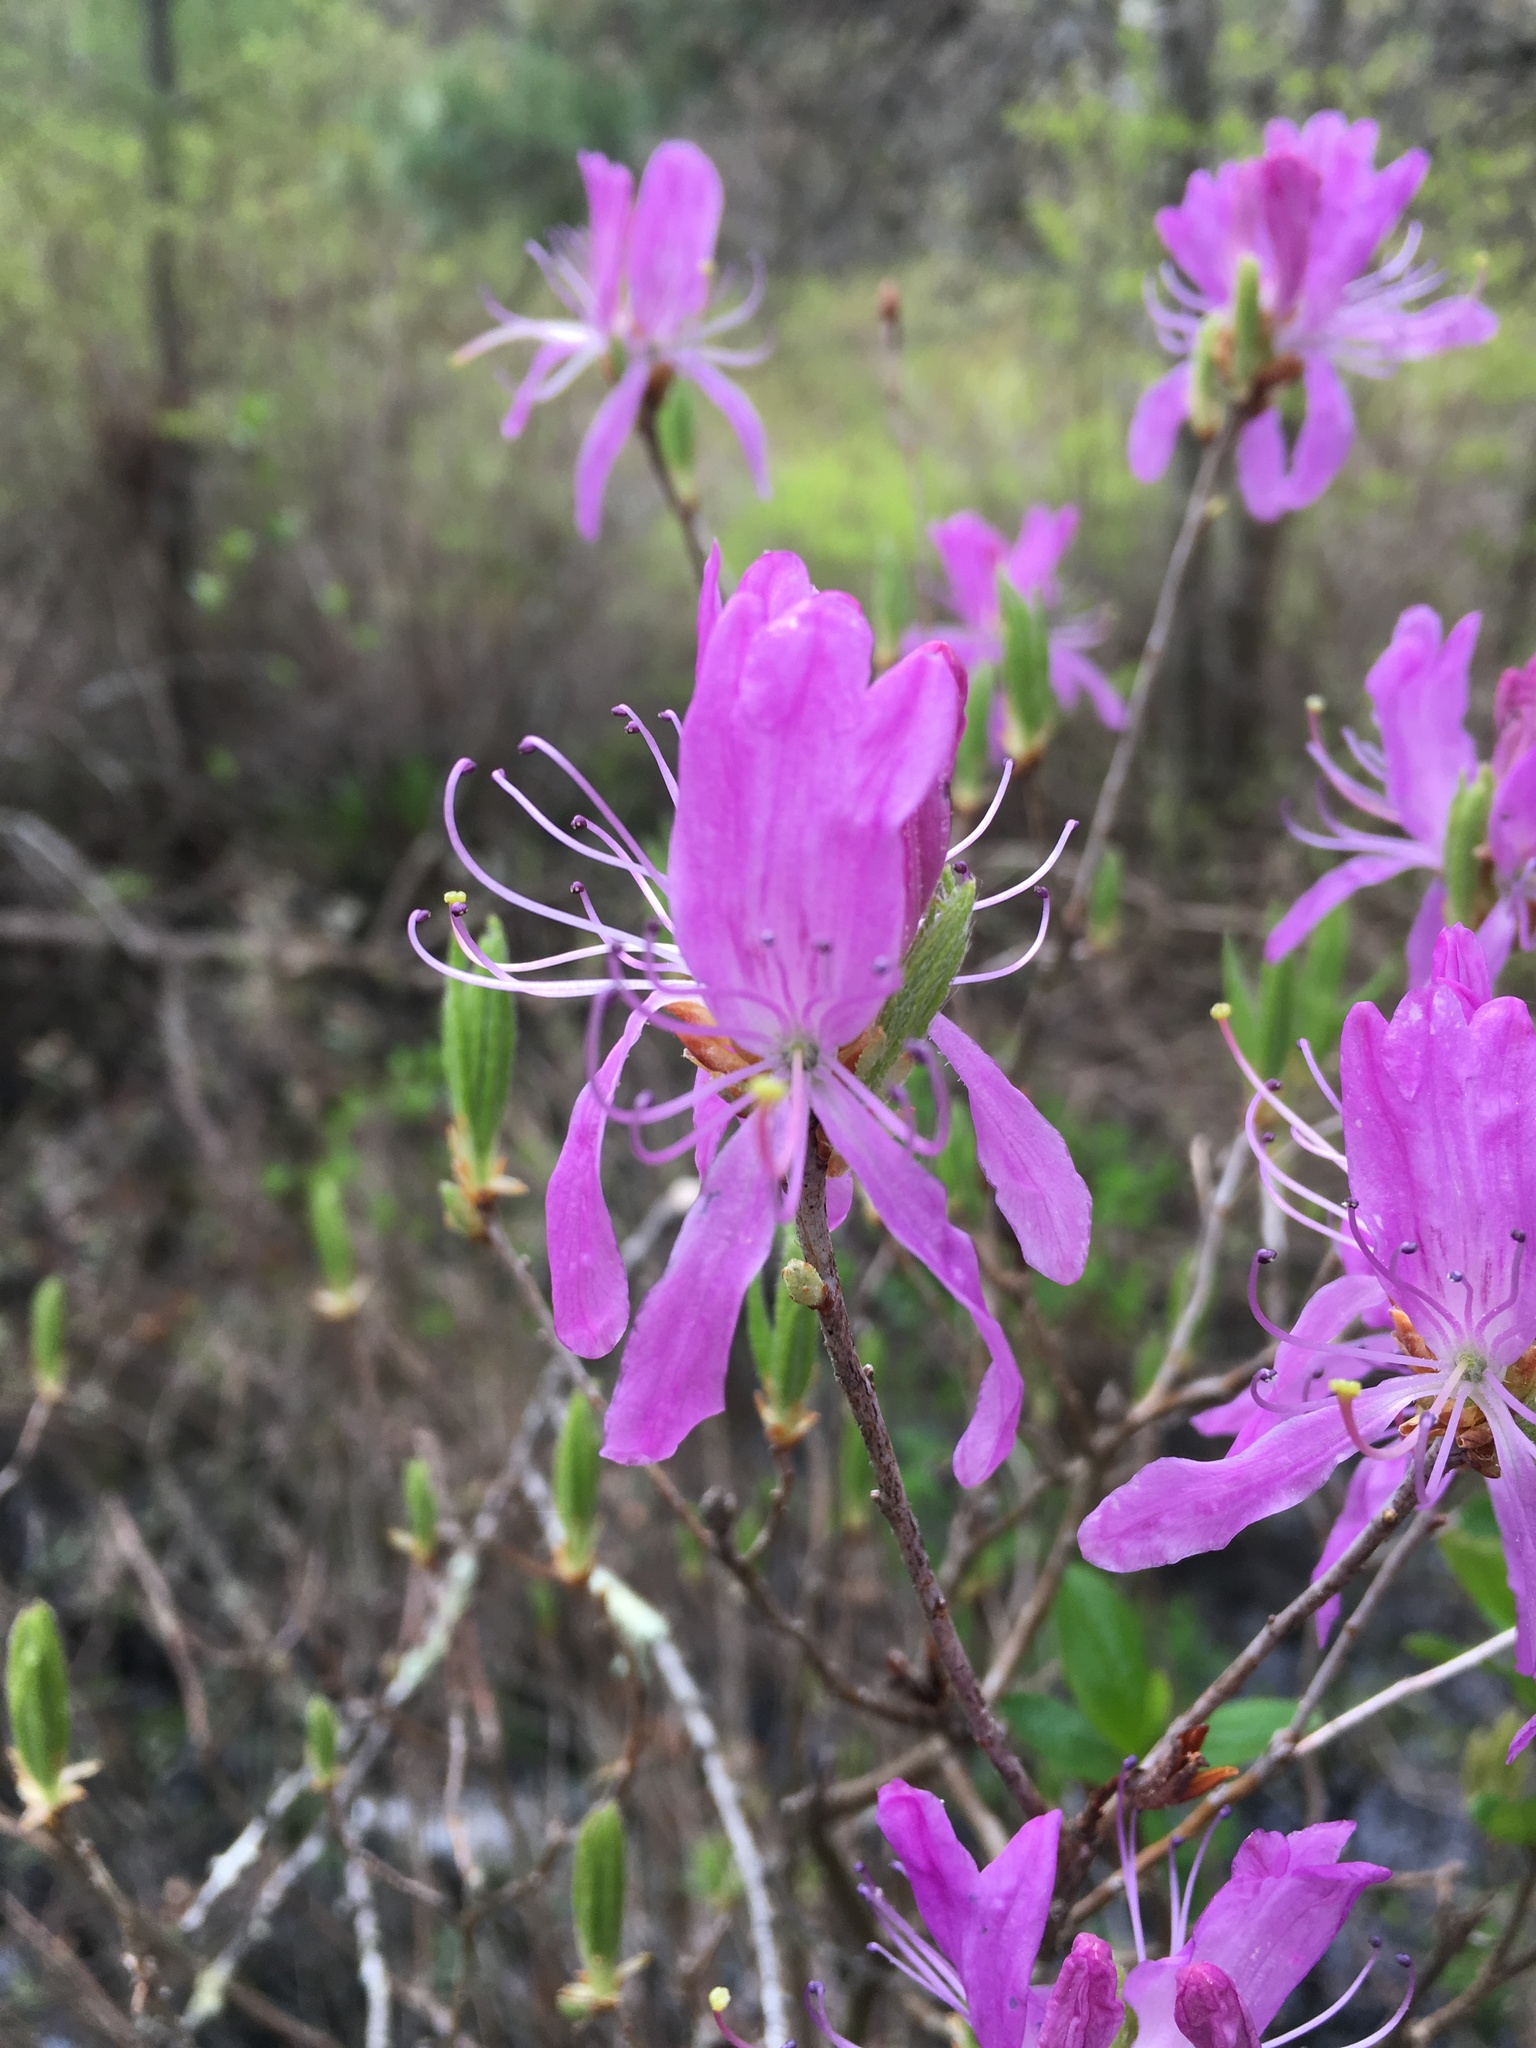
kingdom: Plantae
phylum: Tracheophyta
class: Magnoliopsida
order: Ericales
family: Ericaceae
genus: Rhododendron
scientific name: Rhododendron canadense
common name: Rhodora
